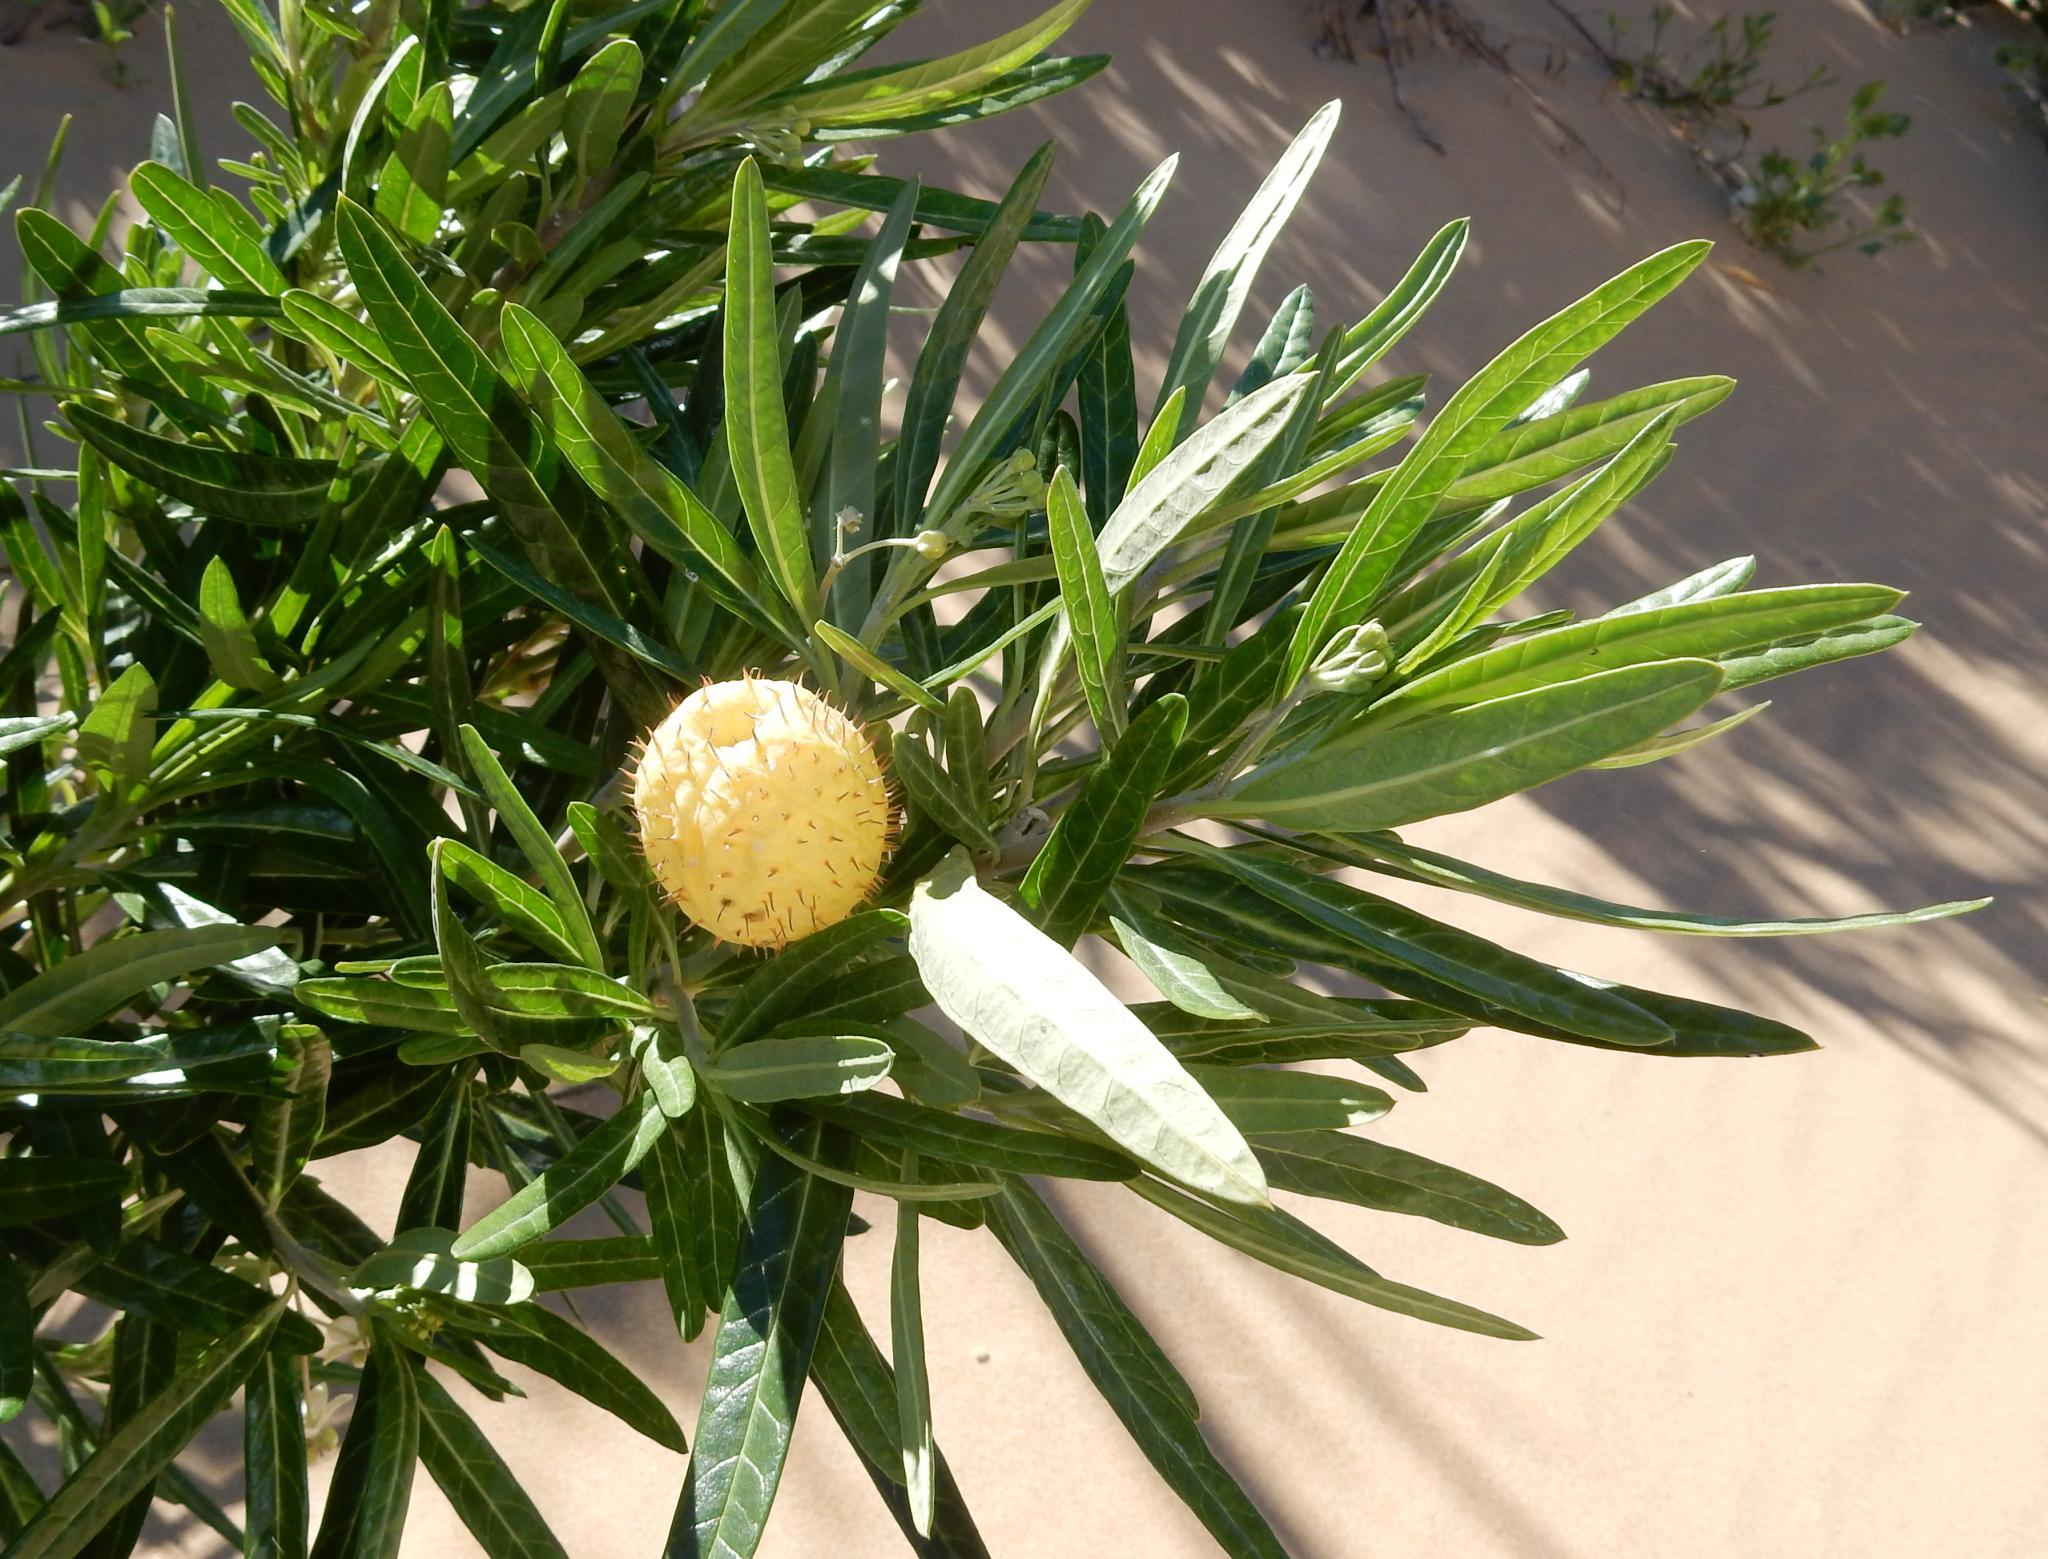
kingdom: Plantae
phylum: Tracheophyta
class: Magnoliopsida
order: Gentianales
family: Apocynaceae
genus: Gomphocarpus
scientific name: Gomphocarpus physocarpus
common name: Balloon cotton bush
